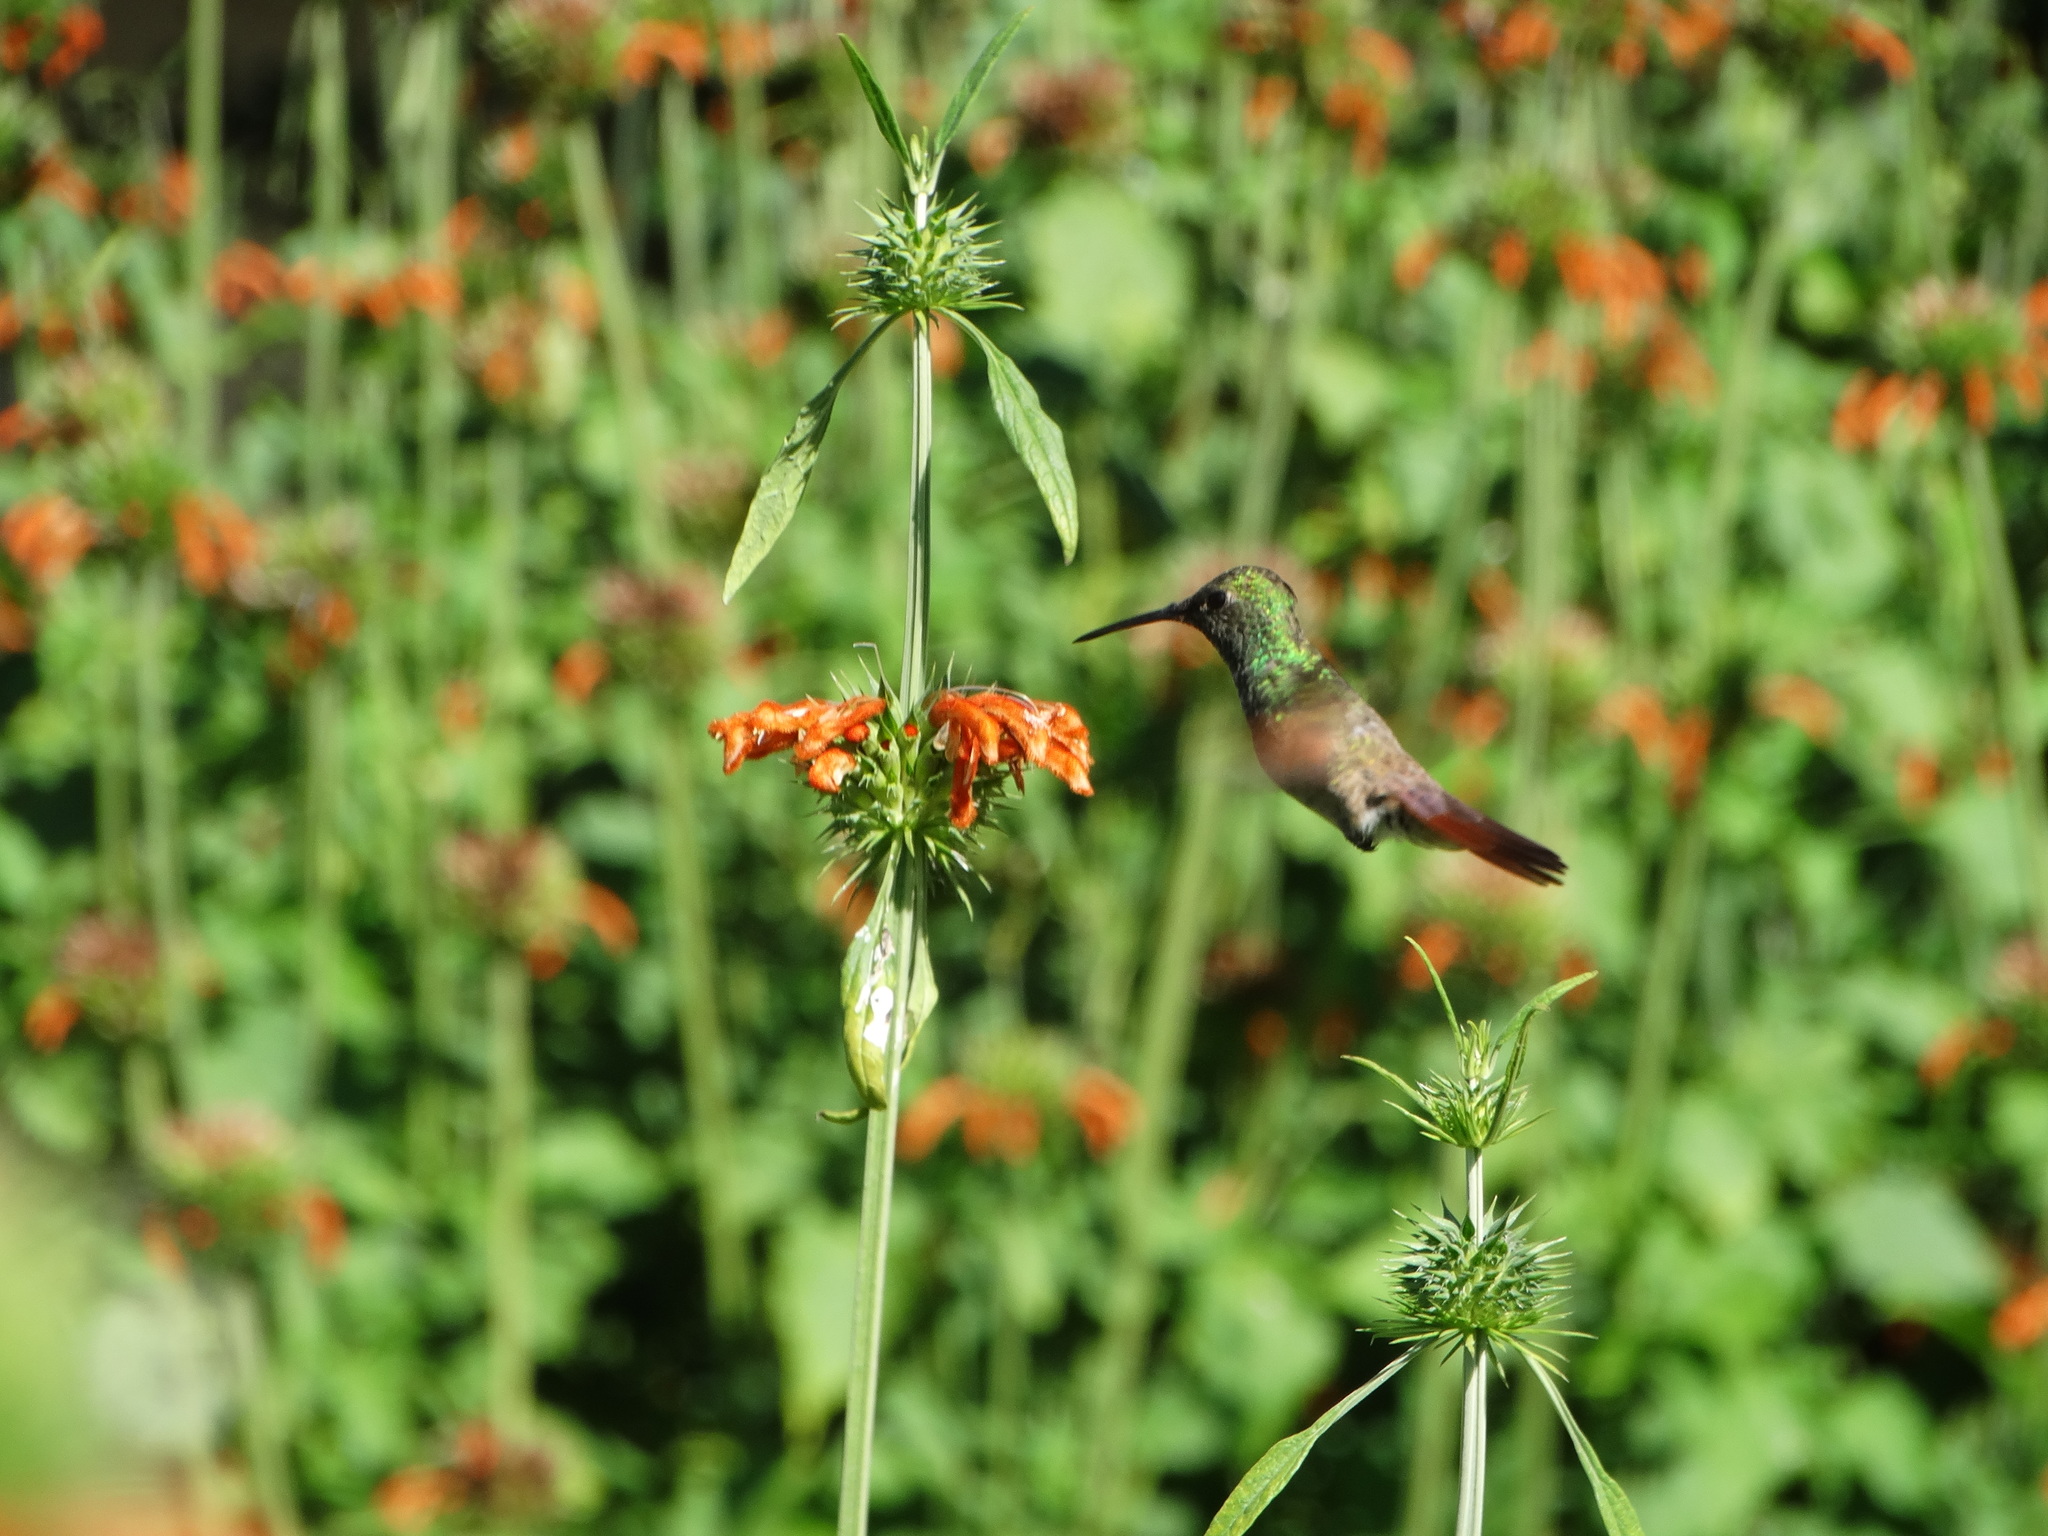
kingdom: Animalia
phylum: Chordata
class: Aves
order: Apodiformes
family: Trochilidae
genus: Saucerottia
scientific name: Saucerottia beryllina
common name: Berylline hummingbird
